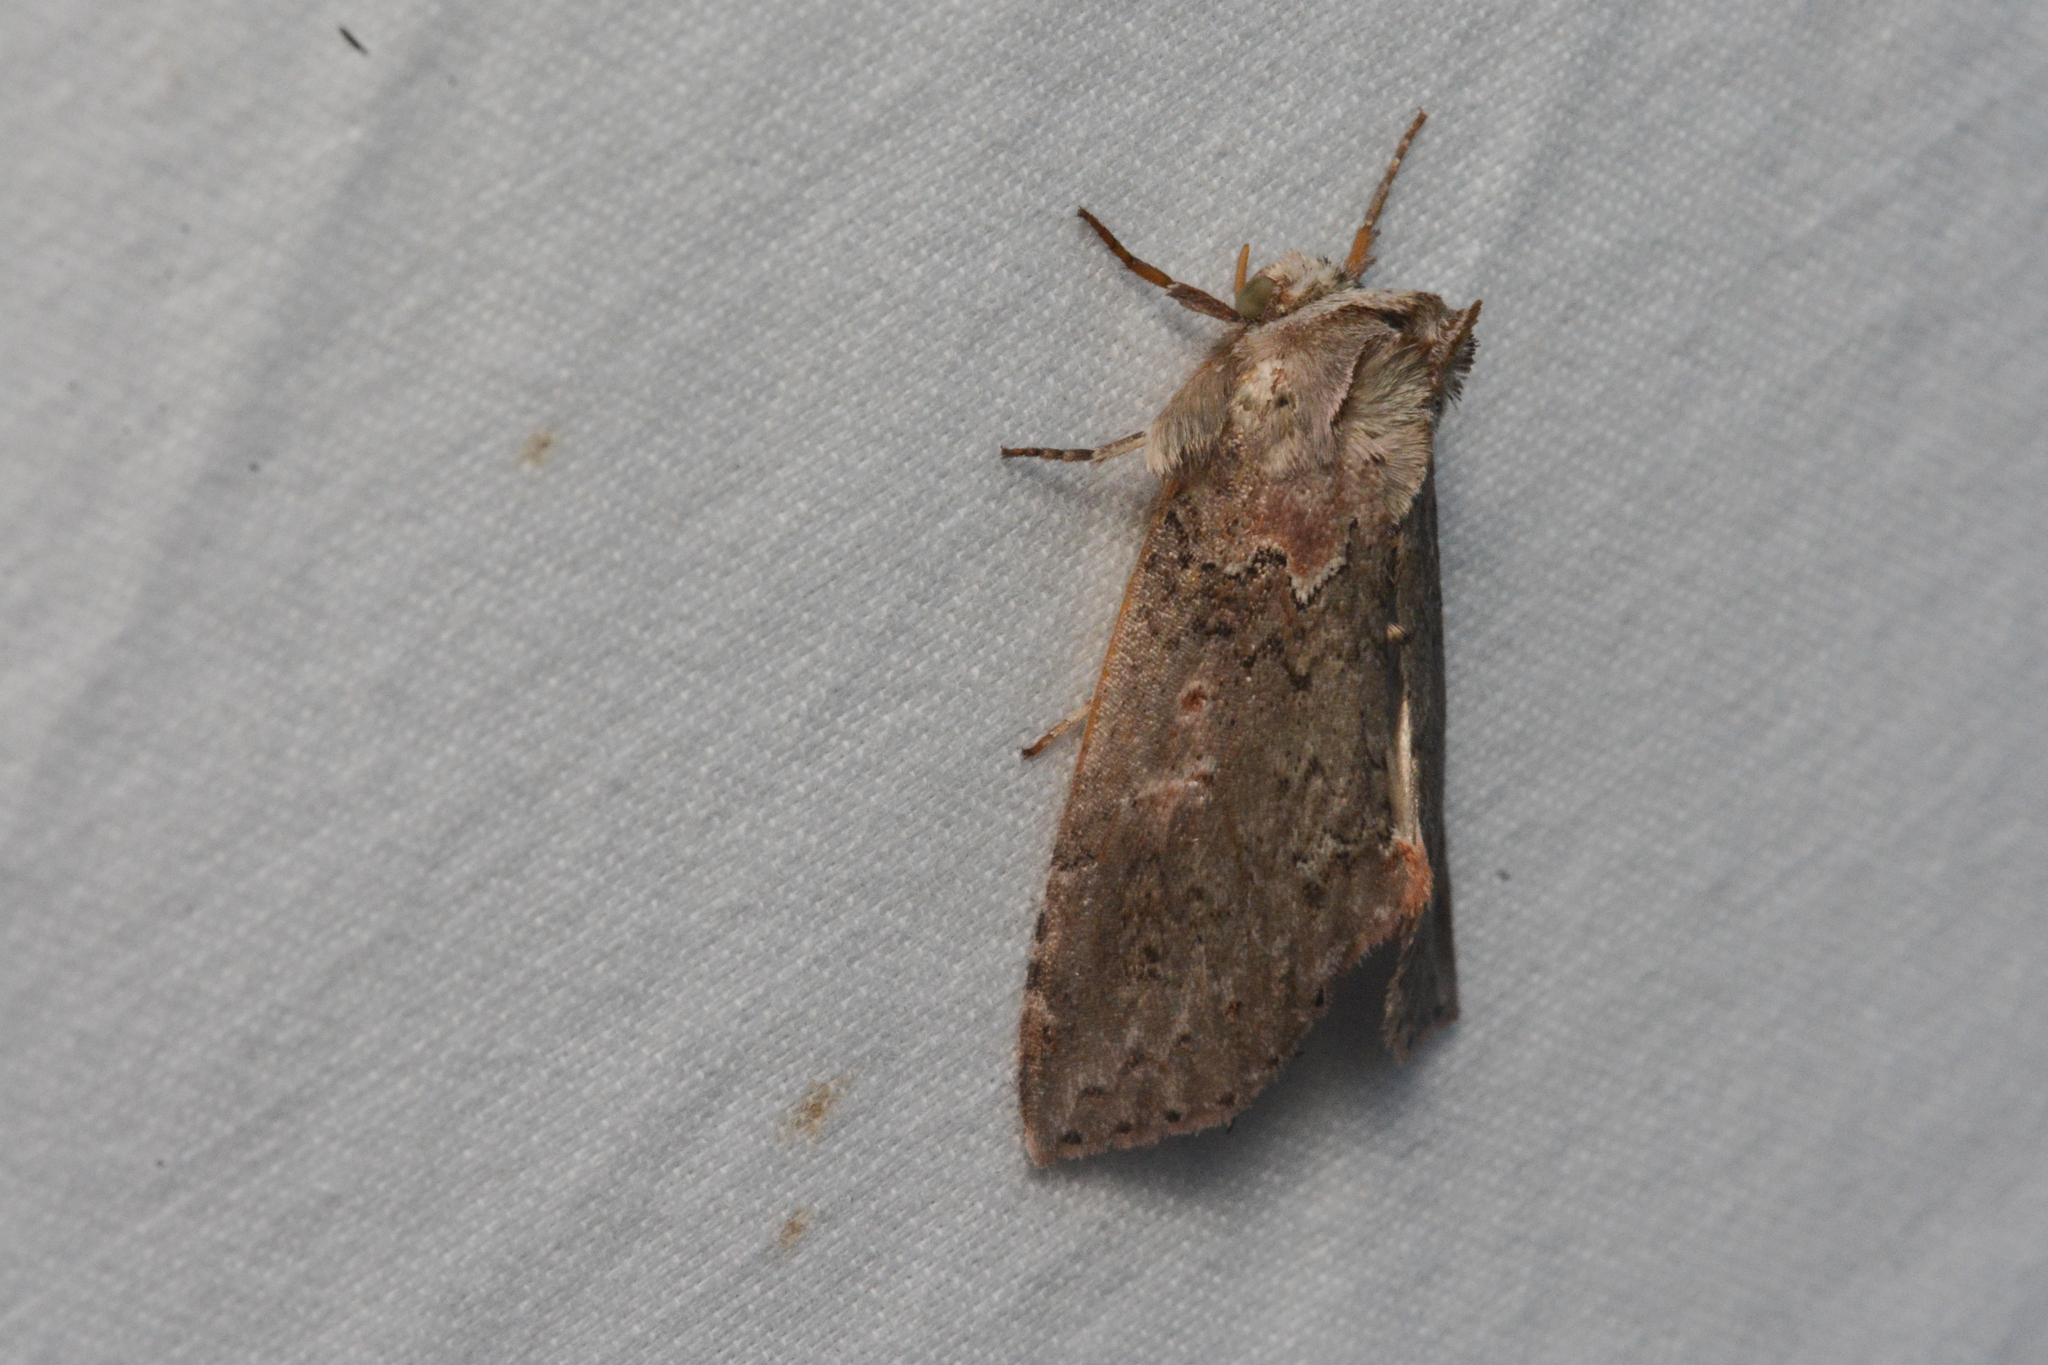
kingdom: Animalia
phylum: Arthropoda
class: Insecta
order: Lepidoptera
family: Drepanidae
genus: Pseudothyatira
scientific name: Pseudothyatira cymatophoroides
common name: Tufted thyatirid moth
